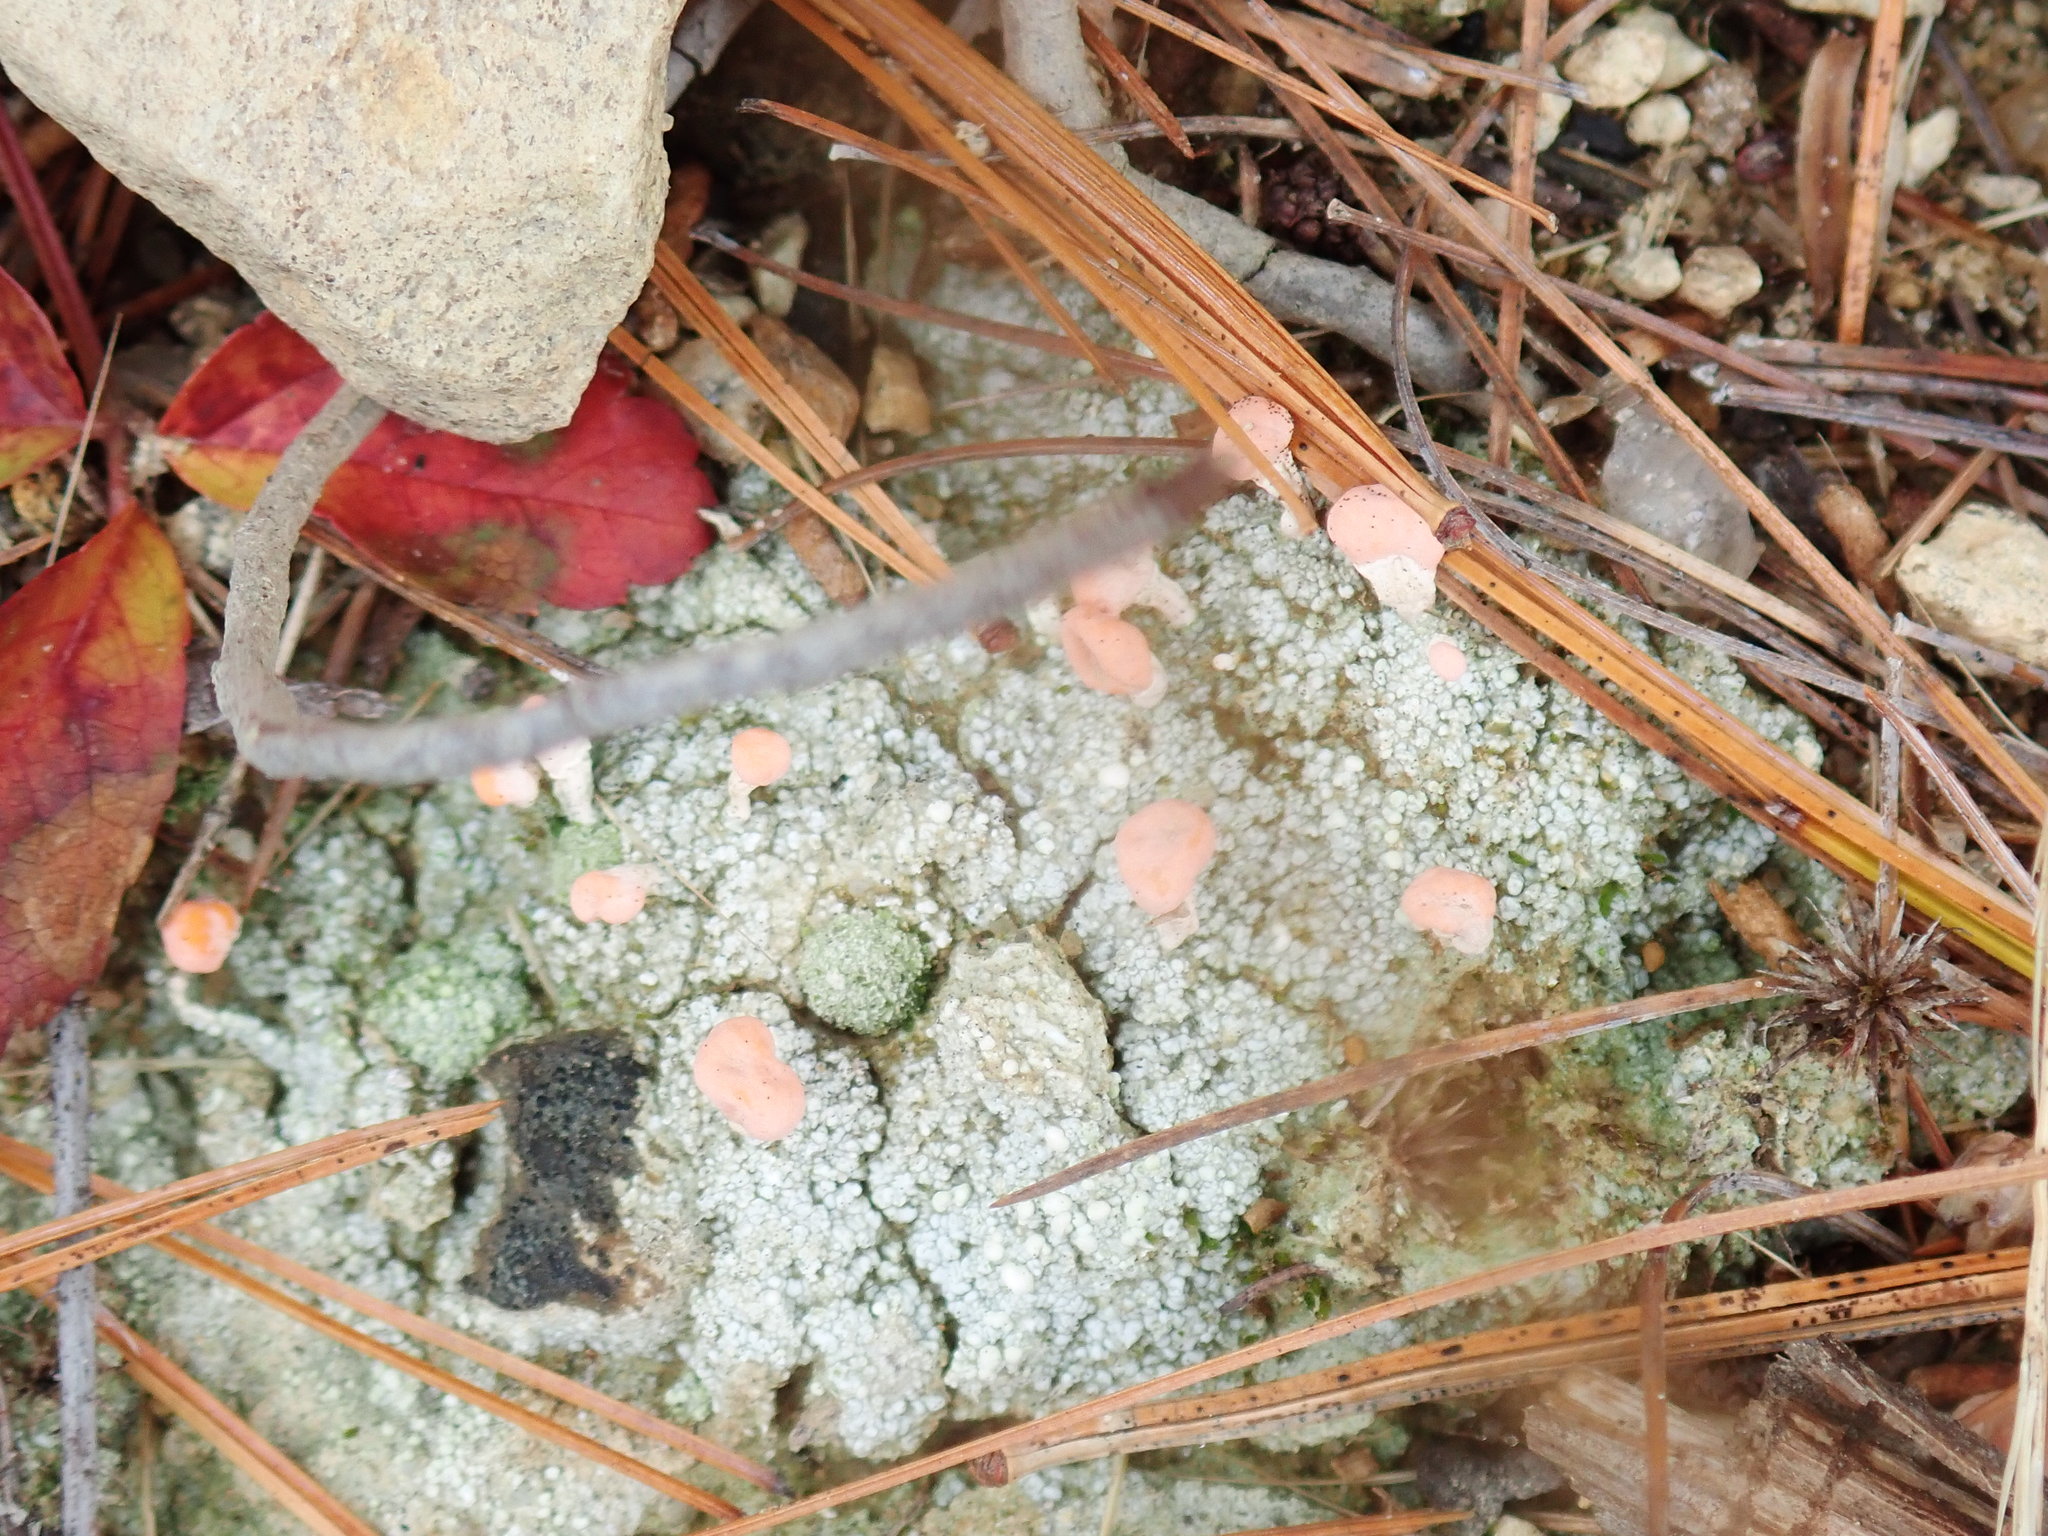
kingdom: Fungi
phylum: Ascomycota
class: Lecanoromycetes
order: Pertusariales
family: Icmadophilaceae
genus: Dibaeis
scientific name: Dibaeis baeomyces
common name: Pink earth lichen
